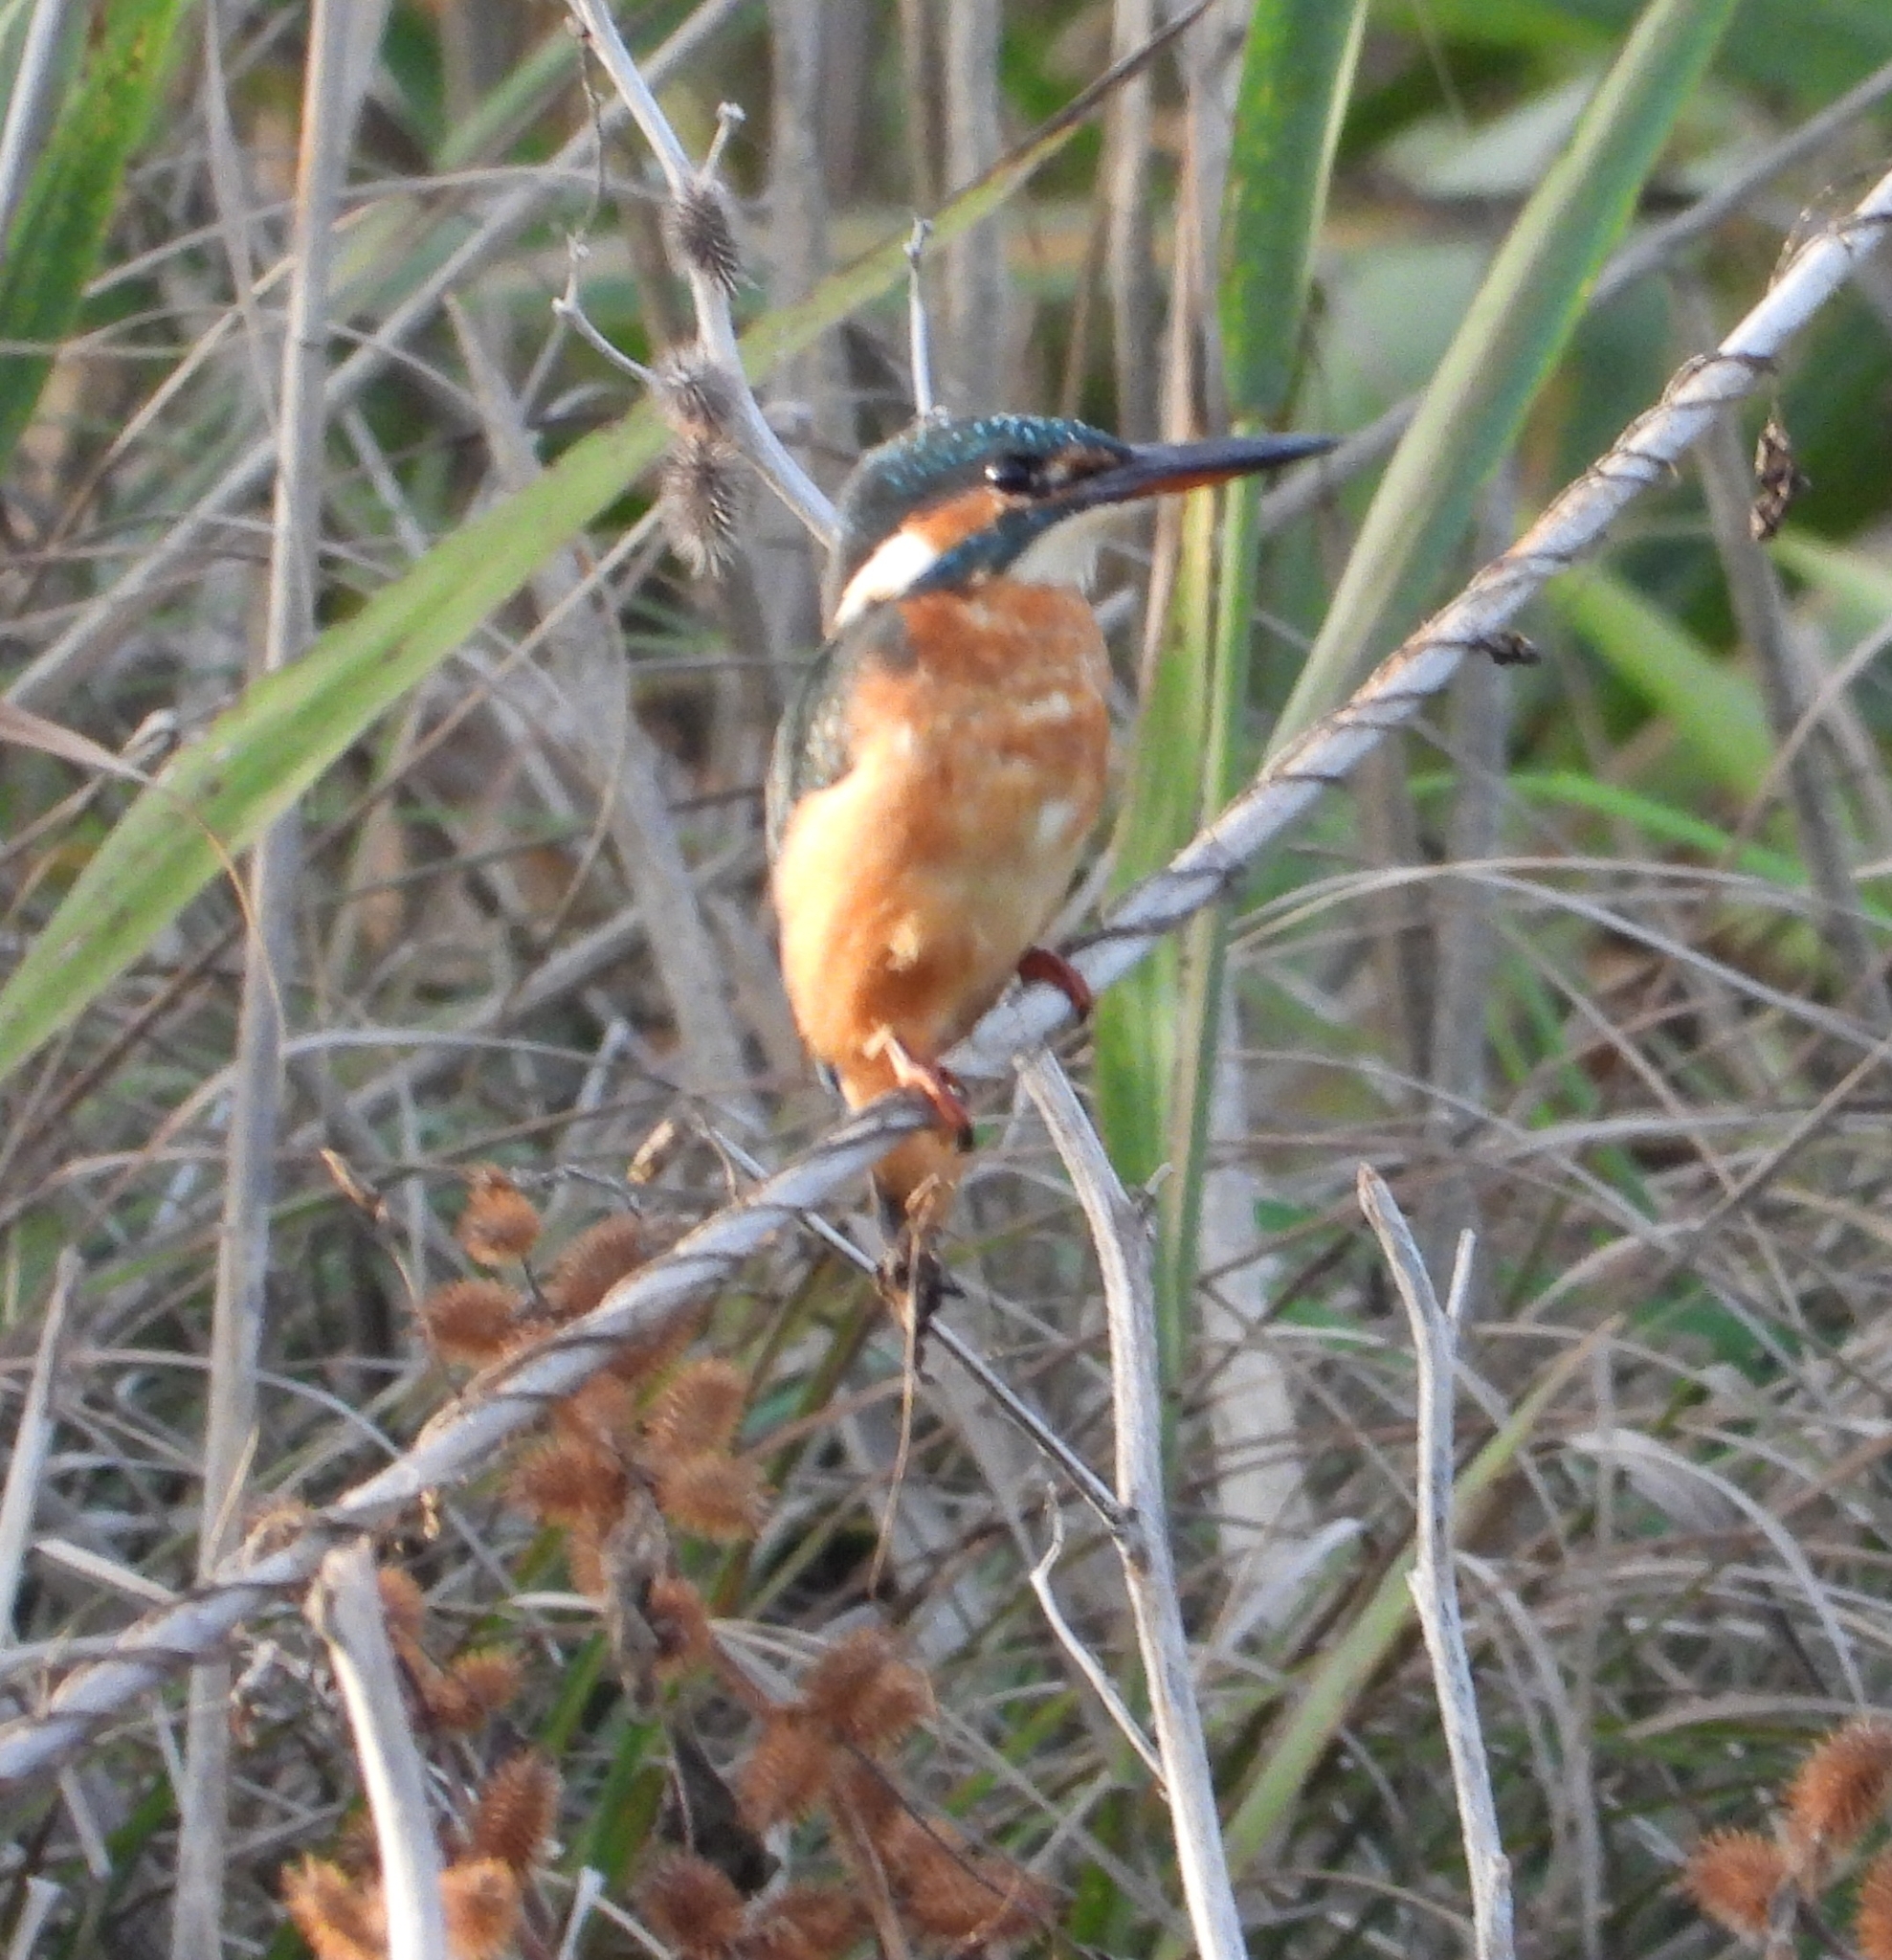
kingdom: Animalia
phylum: Chordata
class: Aves
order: Coraciiformes
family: Alcedinidae
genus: Alcedo
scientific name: Alcedo atthis
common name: Common kingfisher
